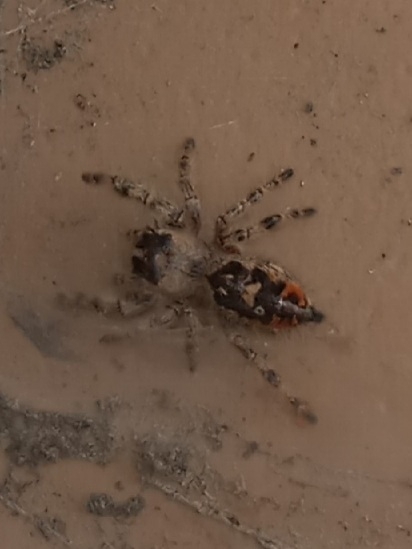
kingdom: Animalia
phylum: Arthropoda
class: Arachnida
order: Araneae
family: Salticidae
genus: Phidippus
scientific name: Phidippus otiosus
